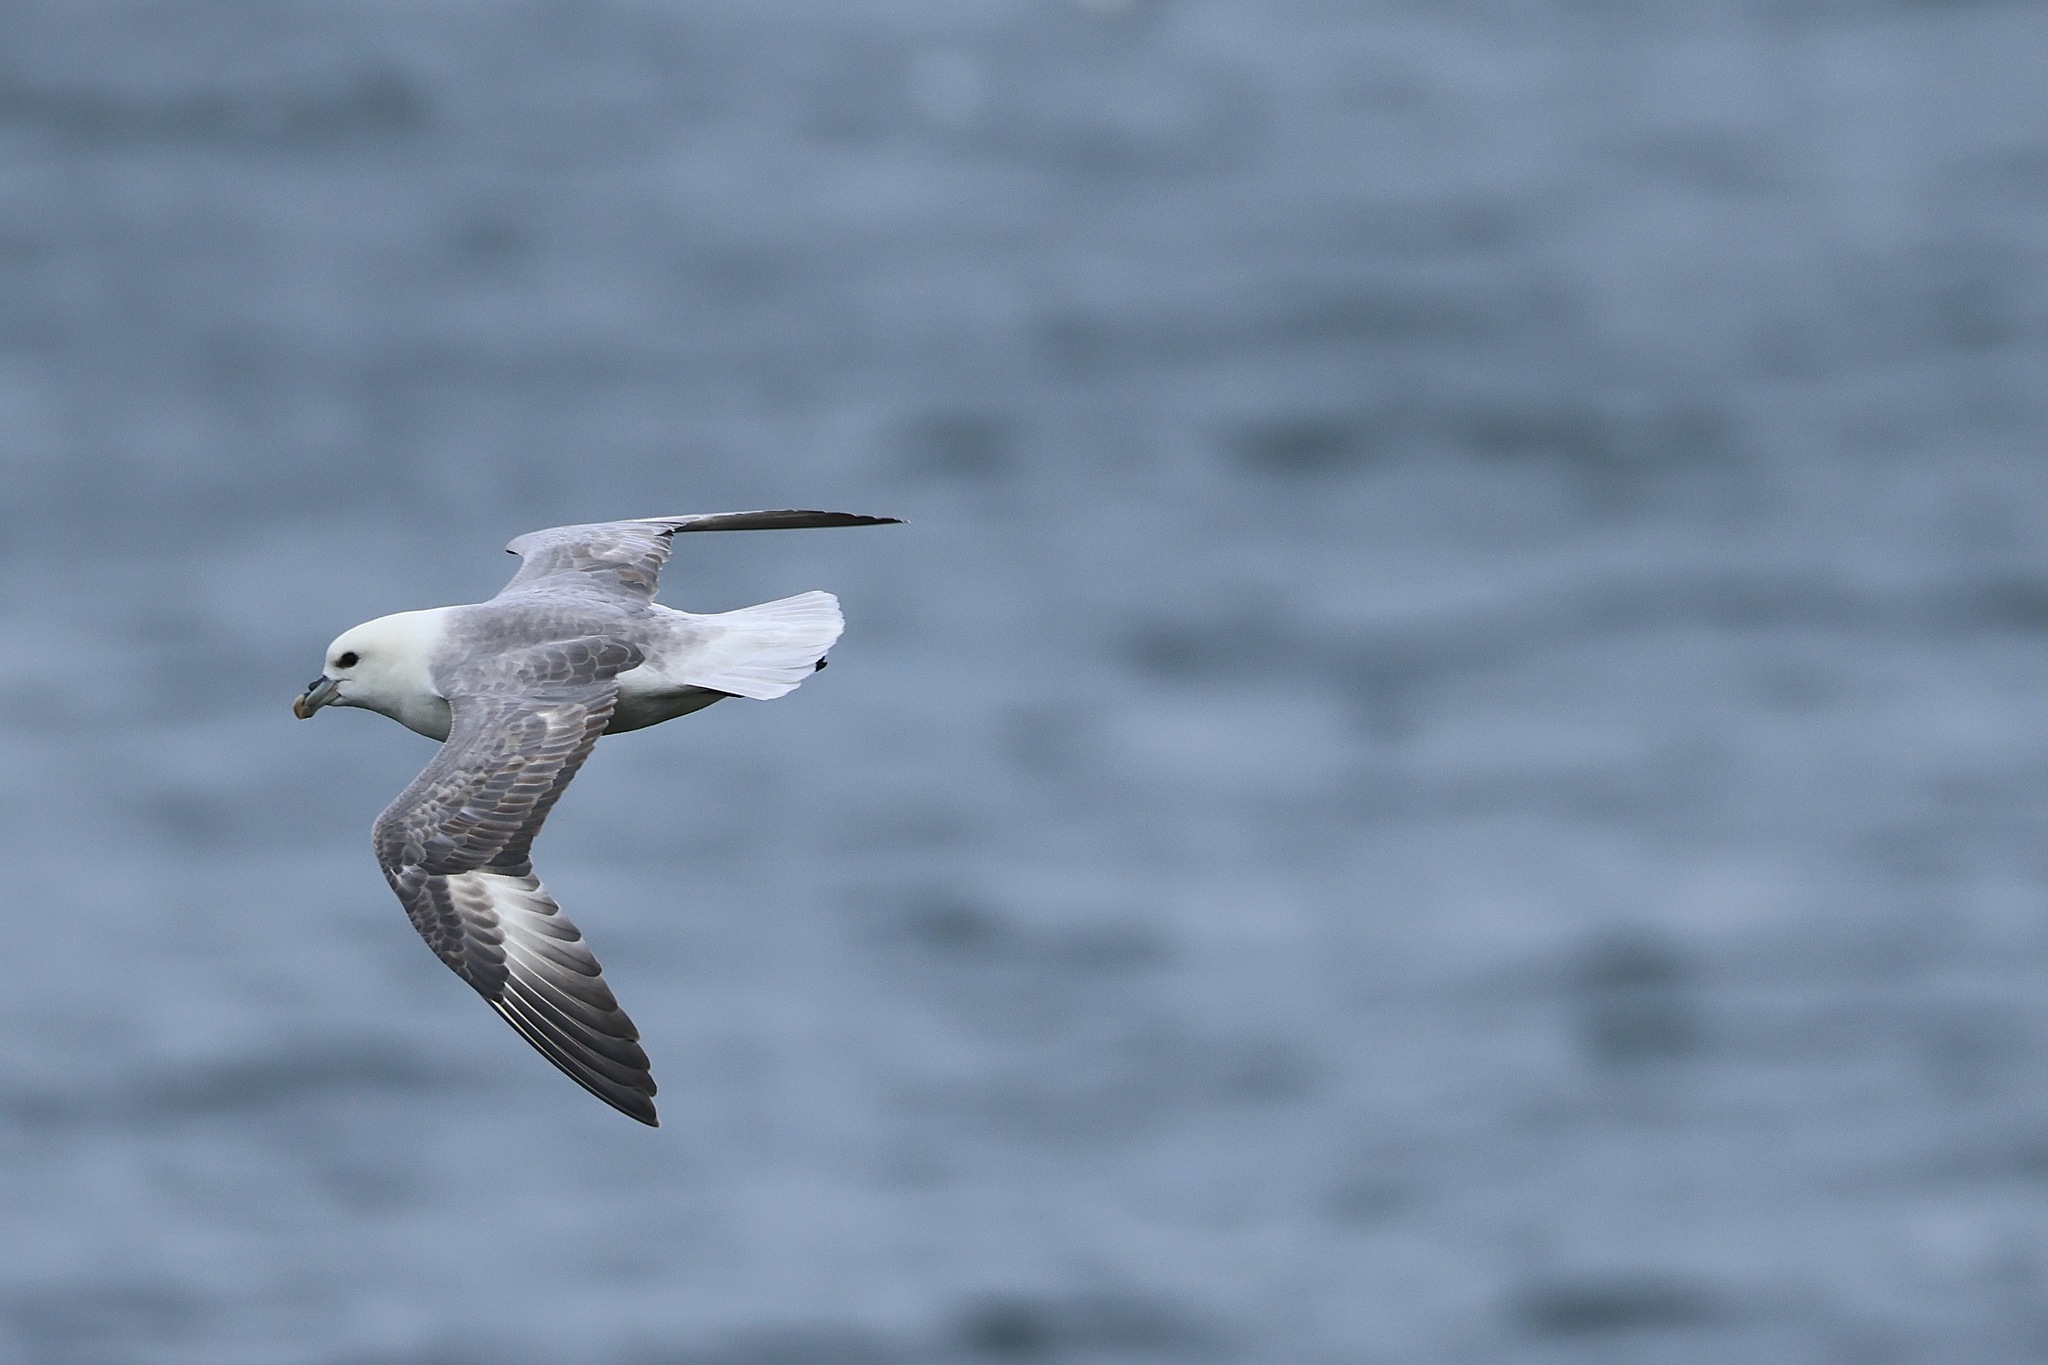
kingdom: Animalia
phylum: Chordata
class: Aves
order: Procellariiformes
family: Procellariidae
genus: Fulmarus
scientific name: Fulmarus glacialis
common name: Northern fulmar
